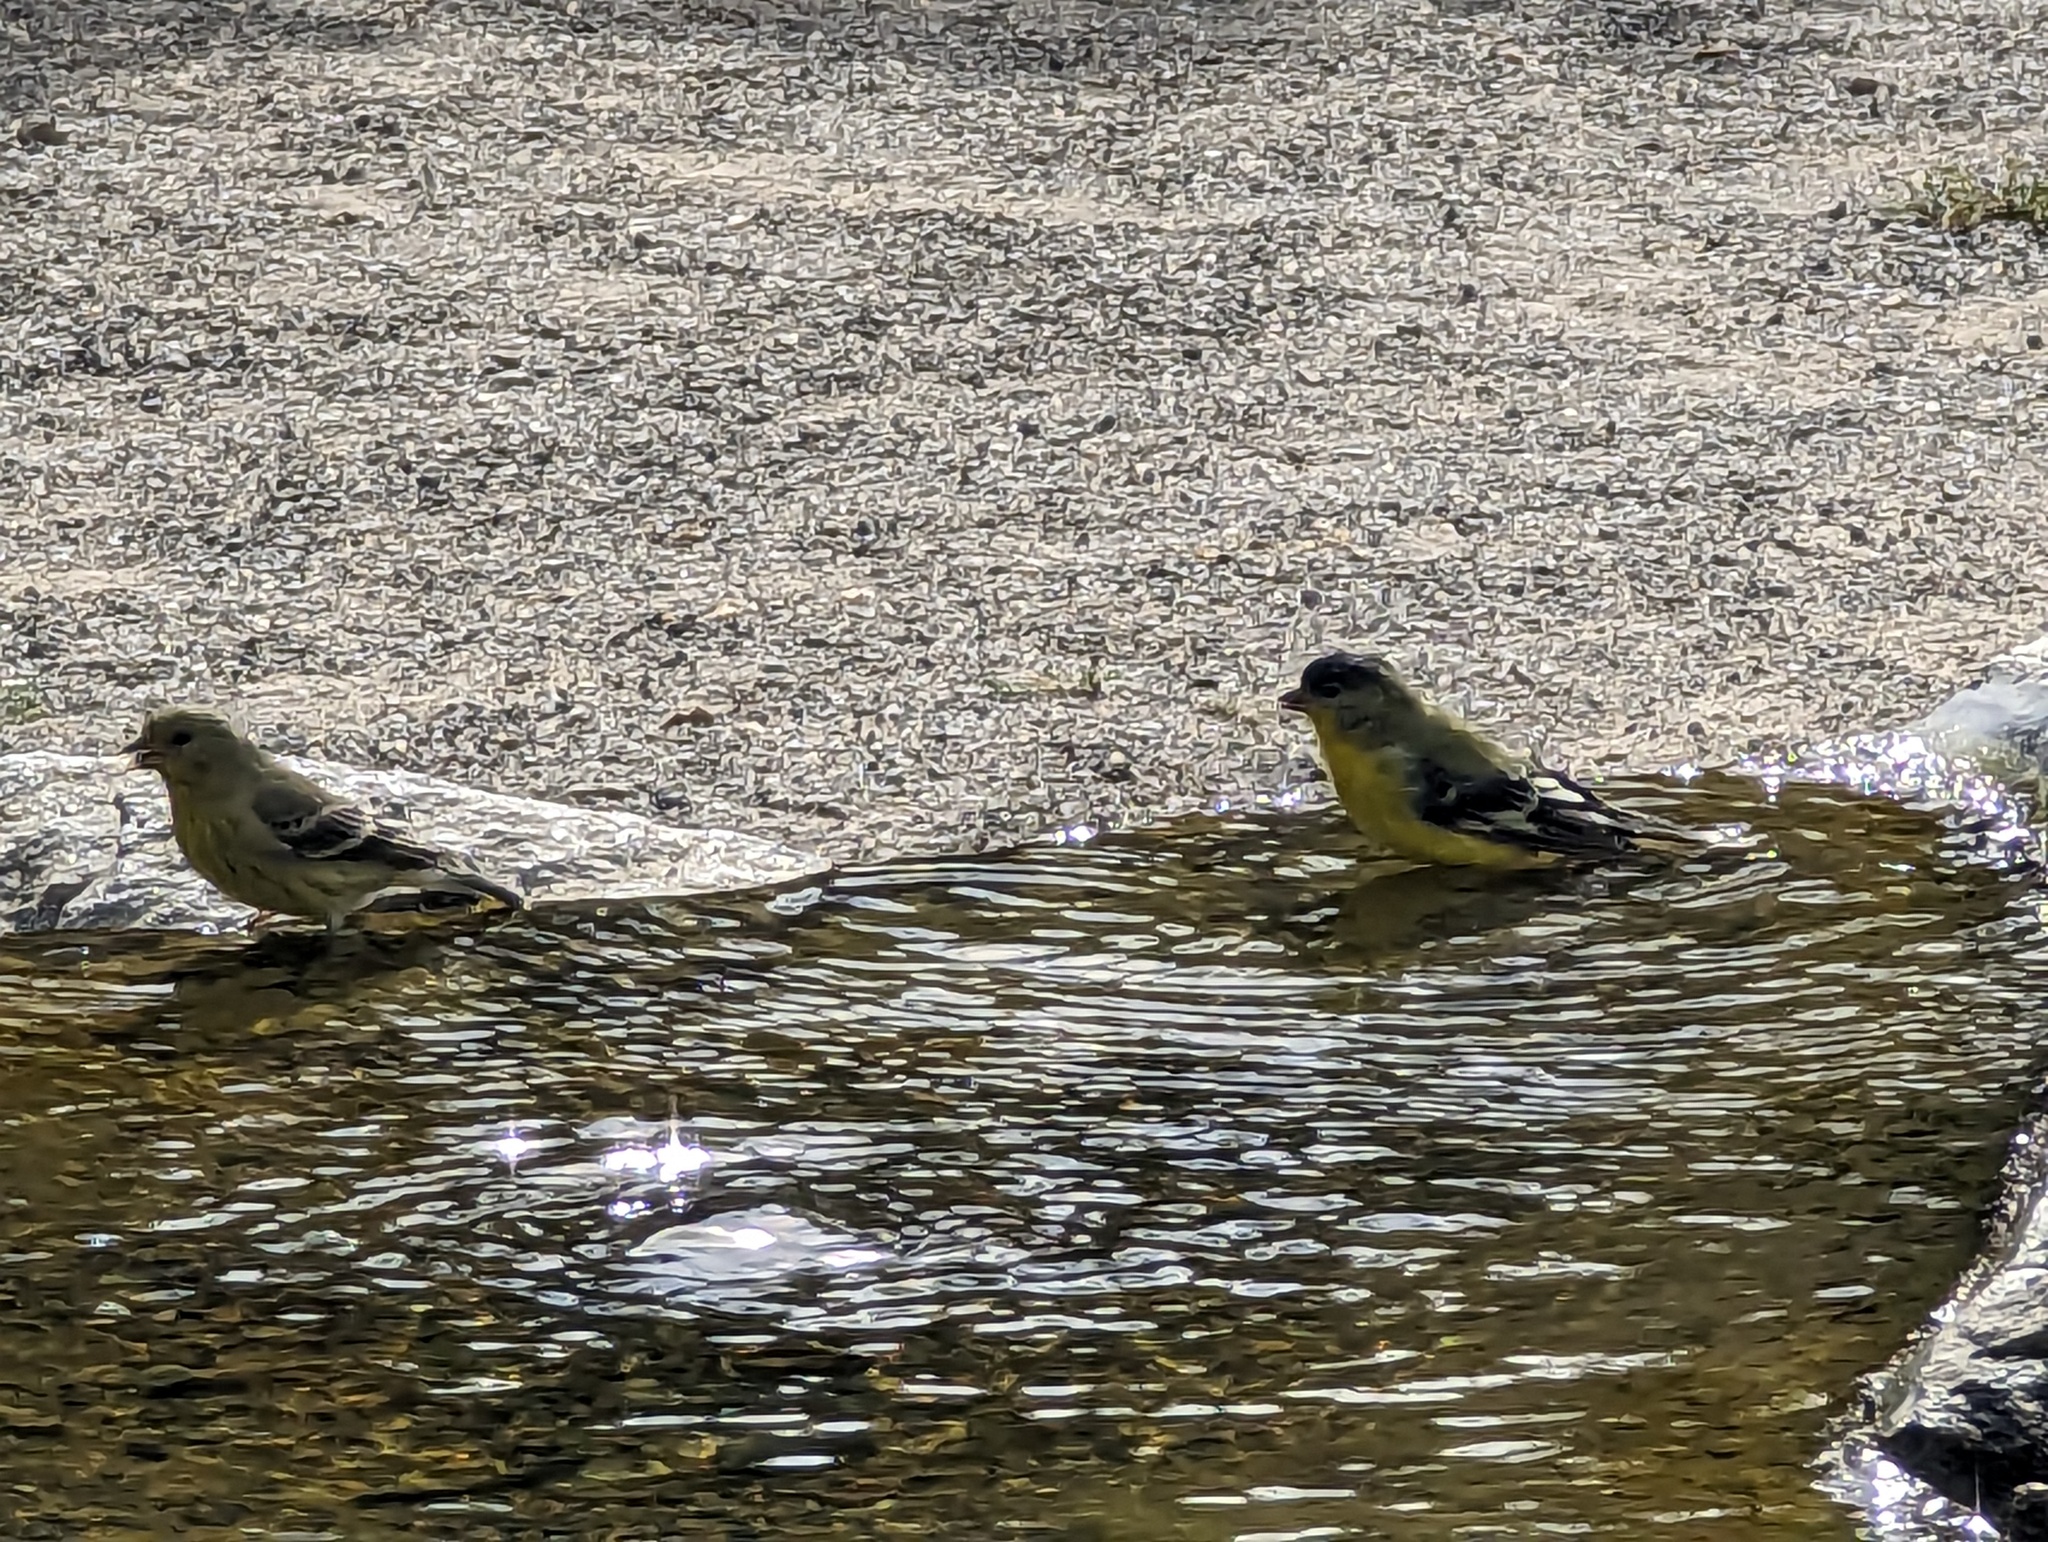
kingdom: Animalia
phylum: Chordata
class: Aves
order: Passeriformes
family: Fringillidae
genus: Spinus
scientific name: Spinus psaltria
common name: Lesser goldfinch
